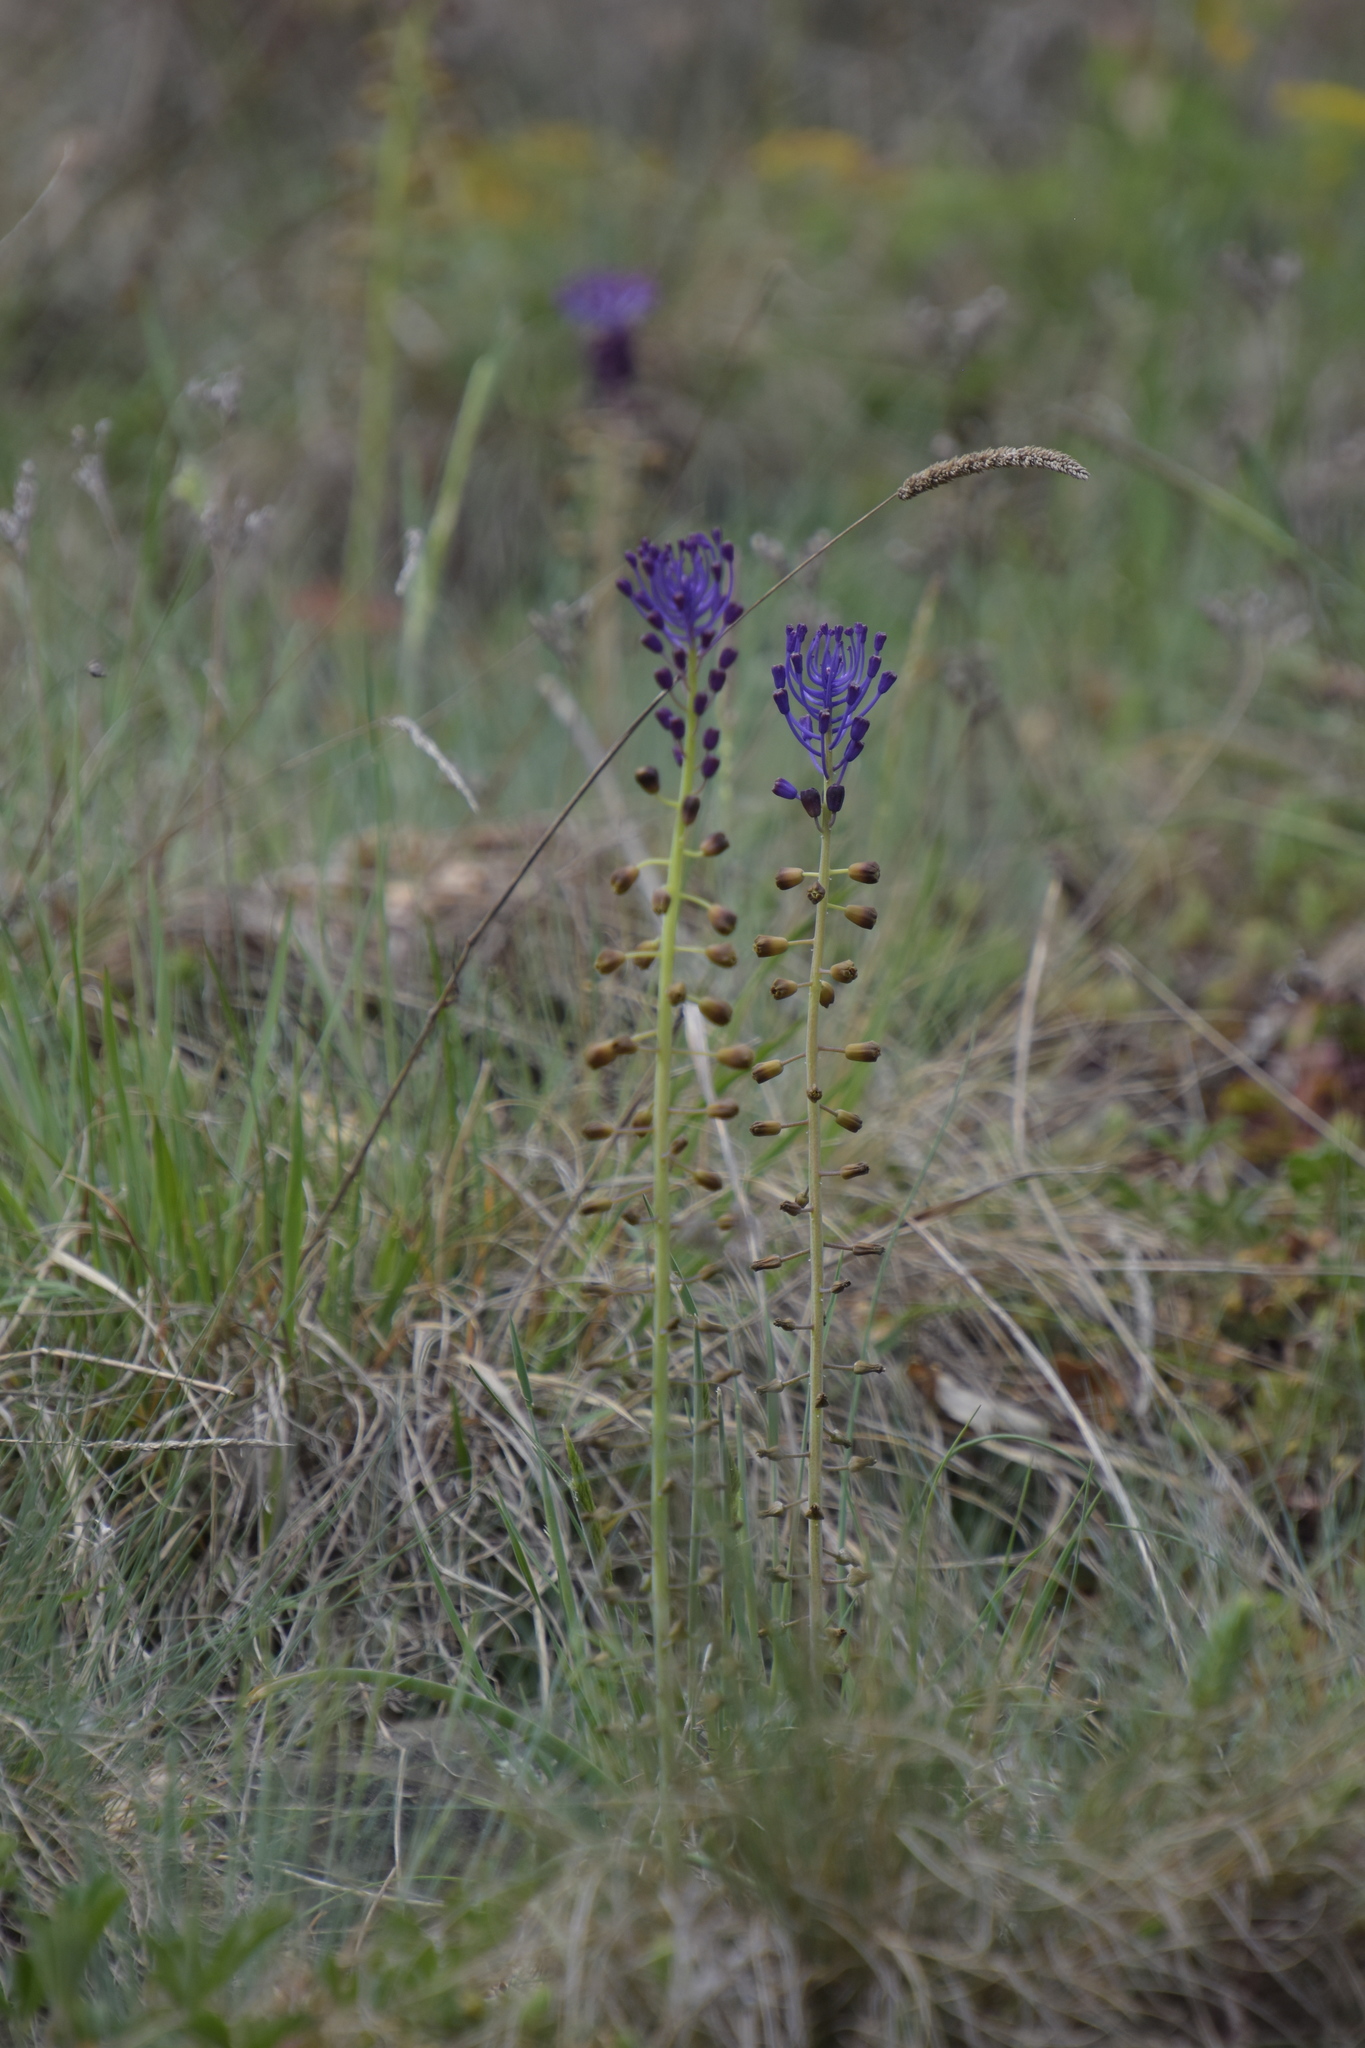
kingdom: Plantae
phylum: Tracheophyta
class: Liliopsida
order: Asparagales
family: Asparagaceae
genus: Muscari
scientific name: Muscari comosum
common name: Tassel hyacinth
